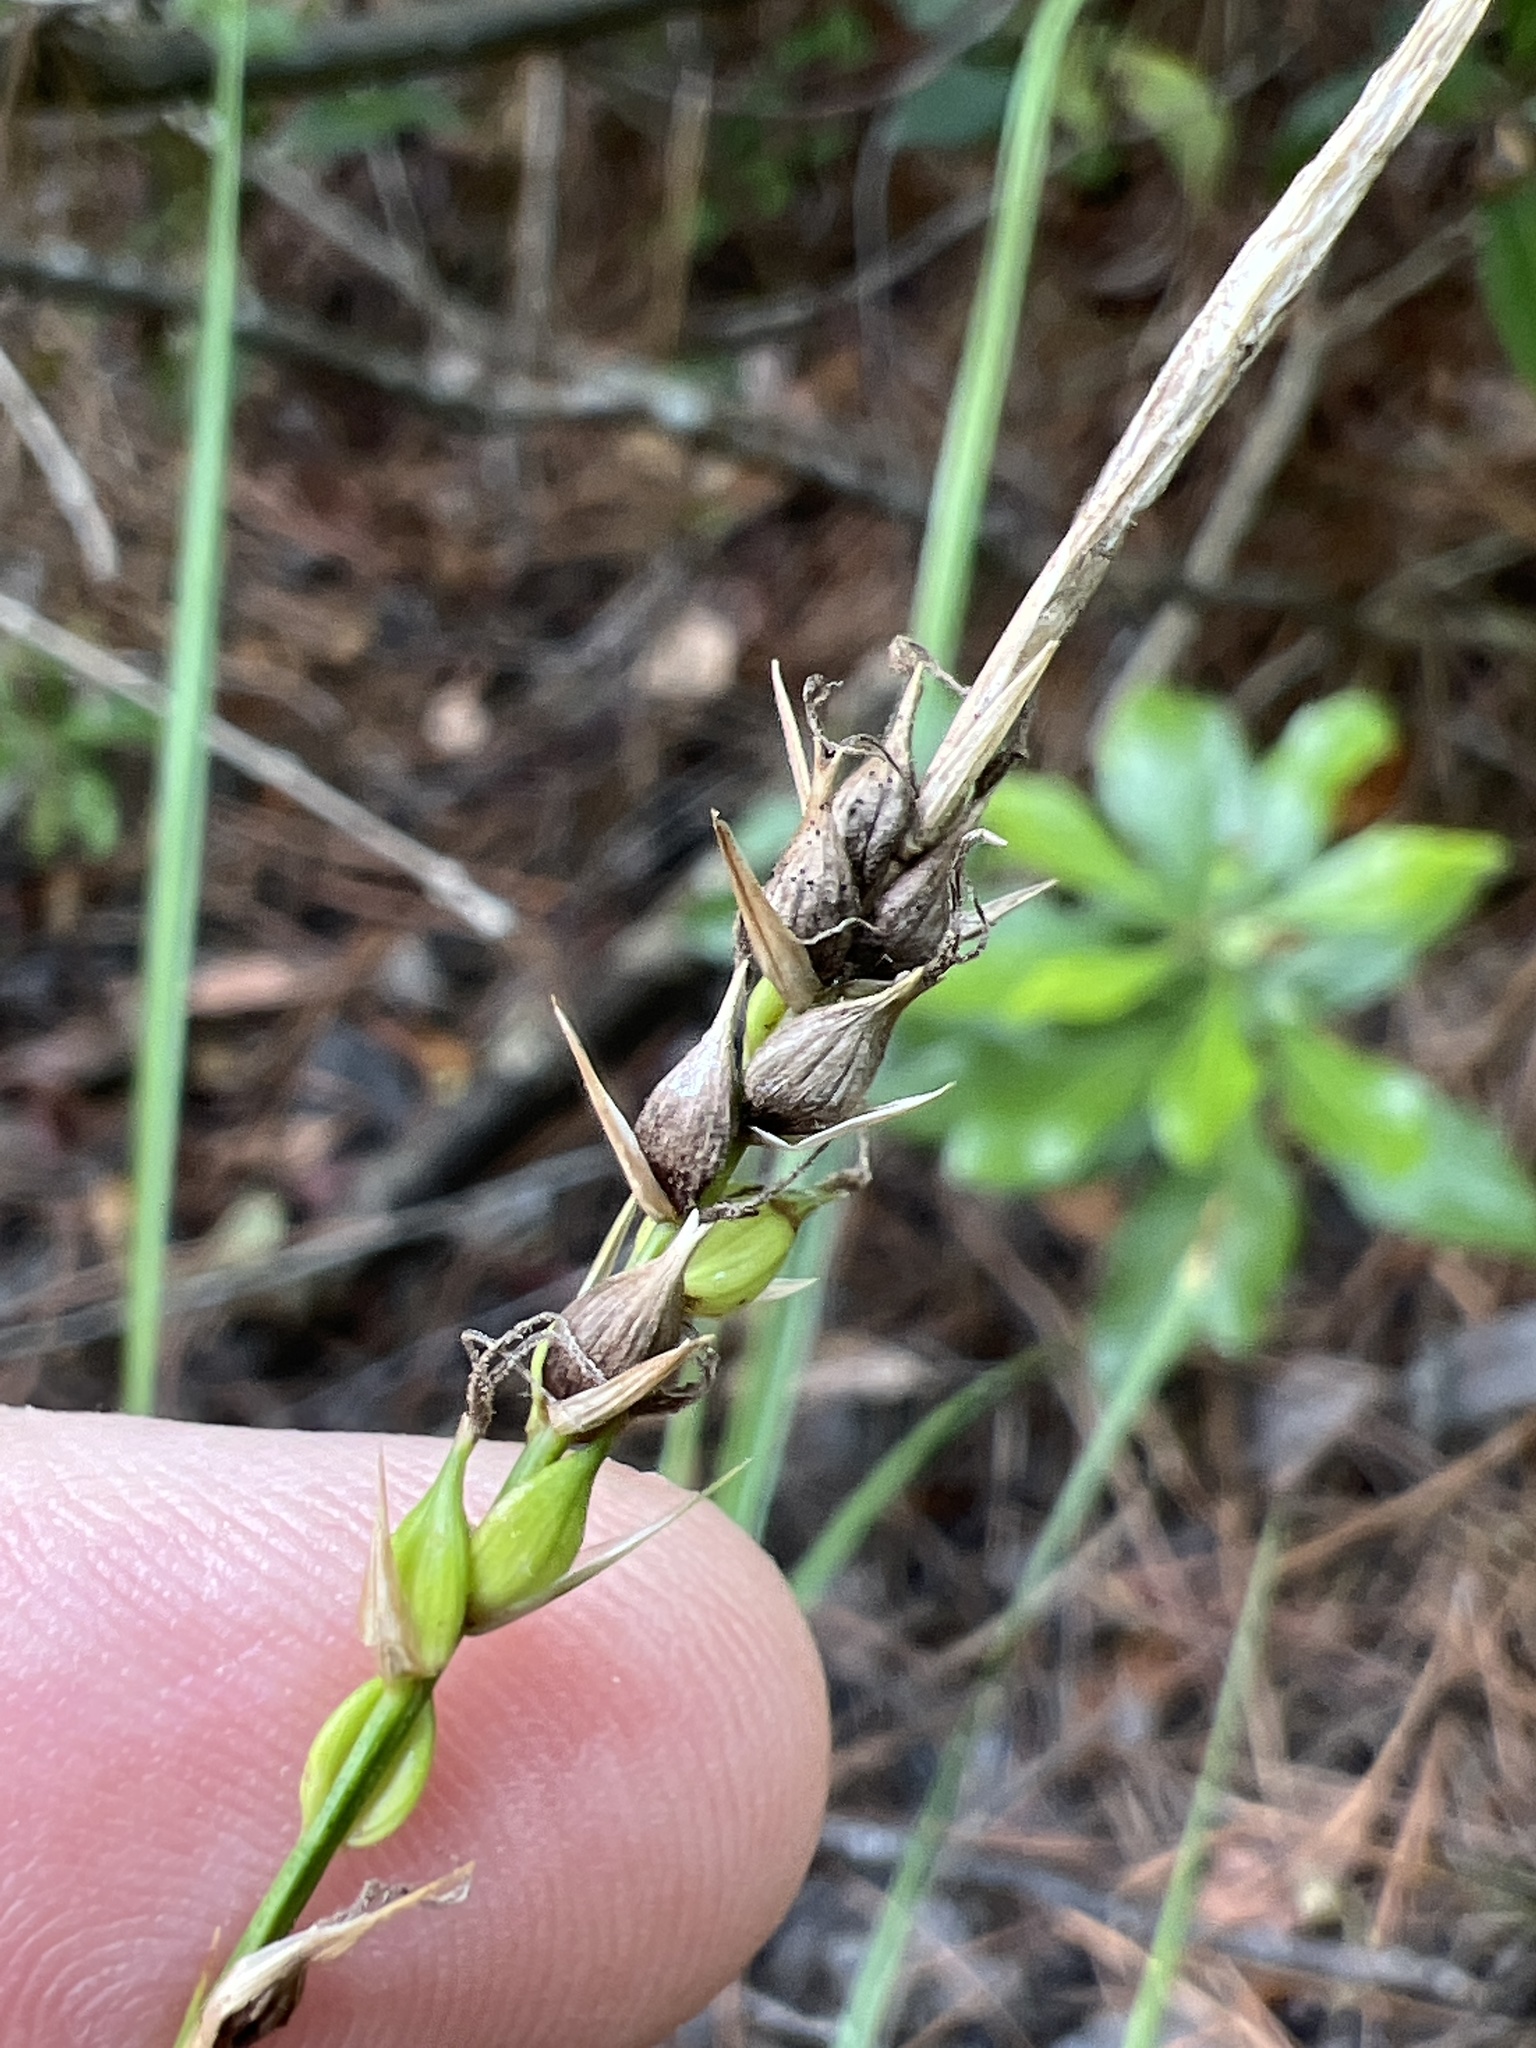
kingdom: Plantae
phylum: Tracheophyta
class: Liliopsida
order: Poales
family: Cyperaceae
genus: Carex
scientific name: Carex striata
